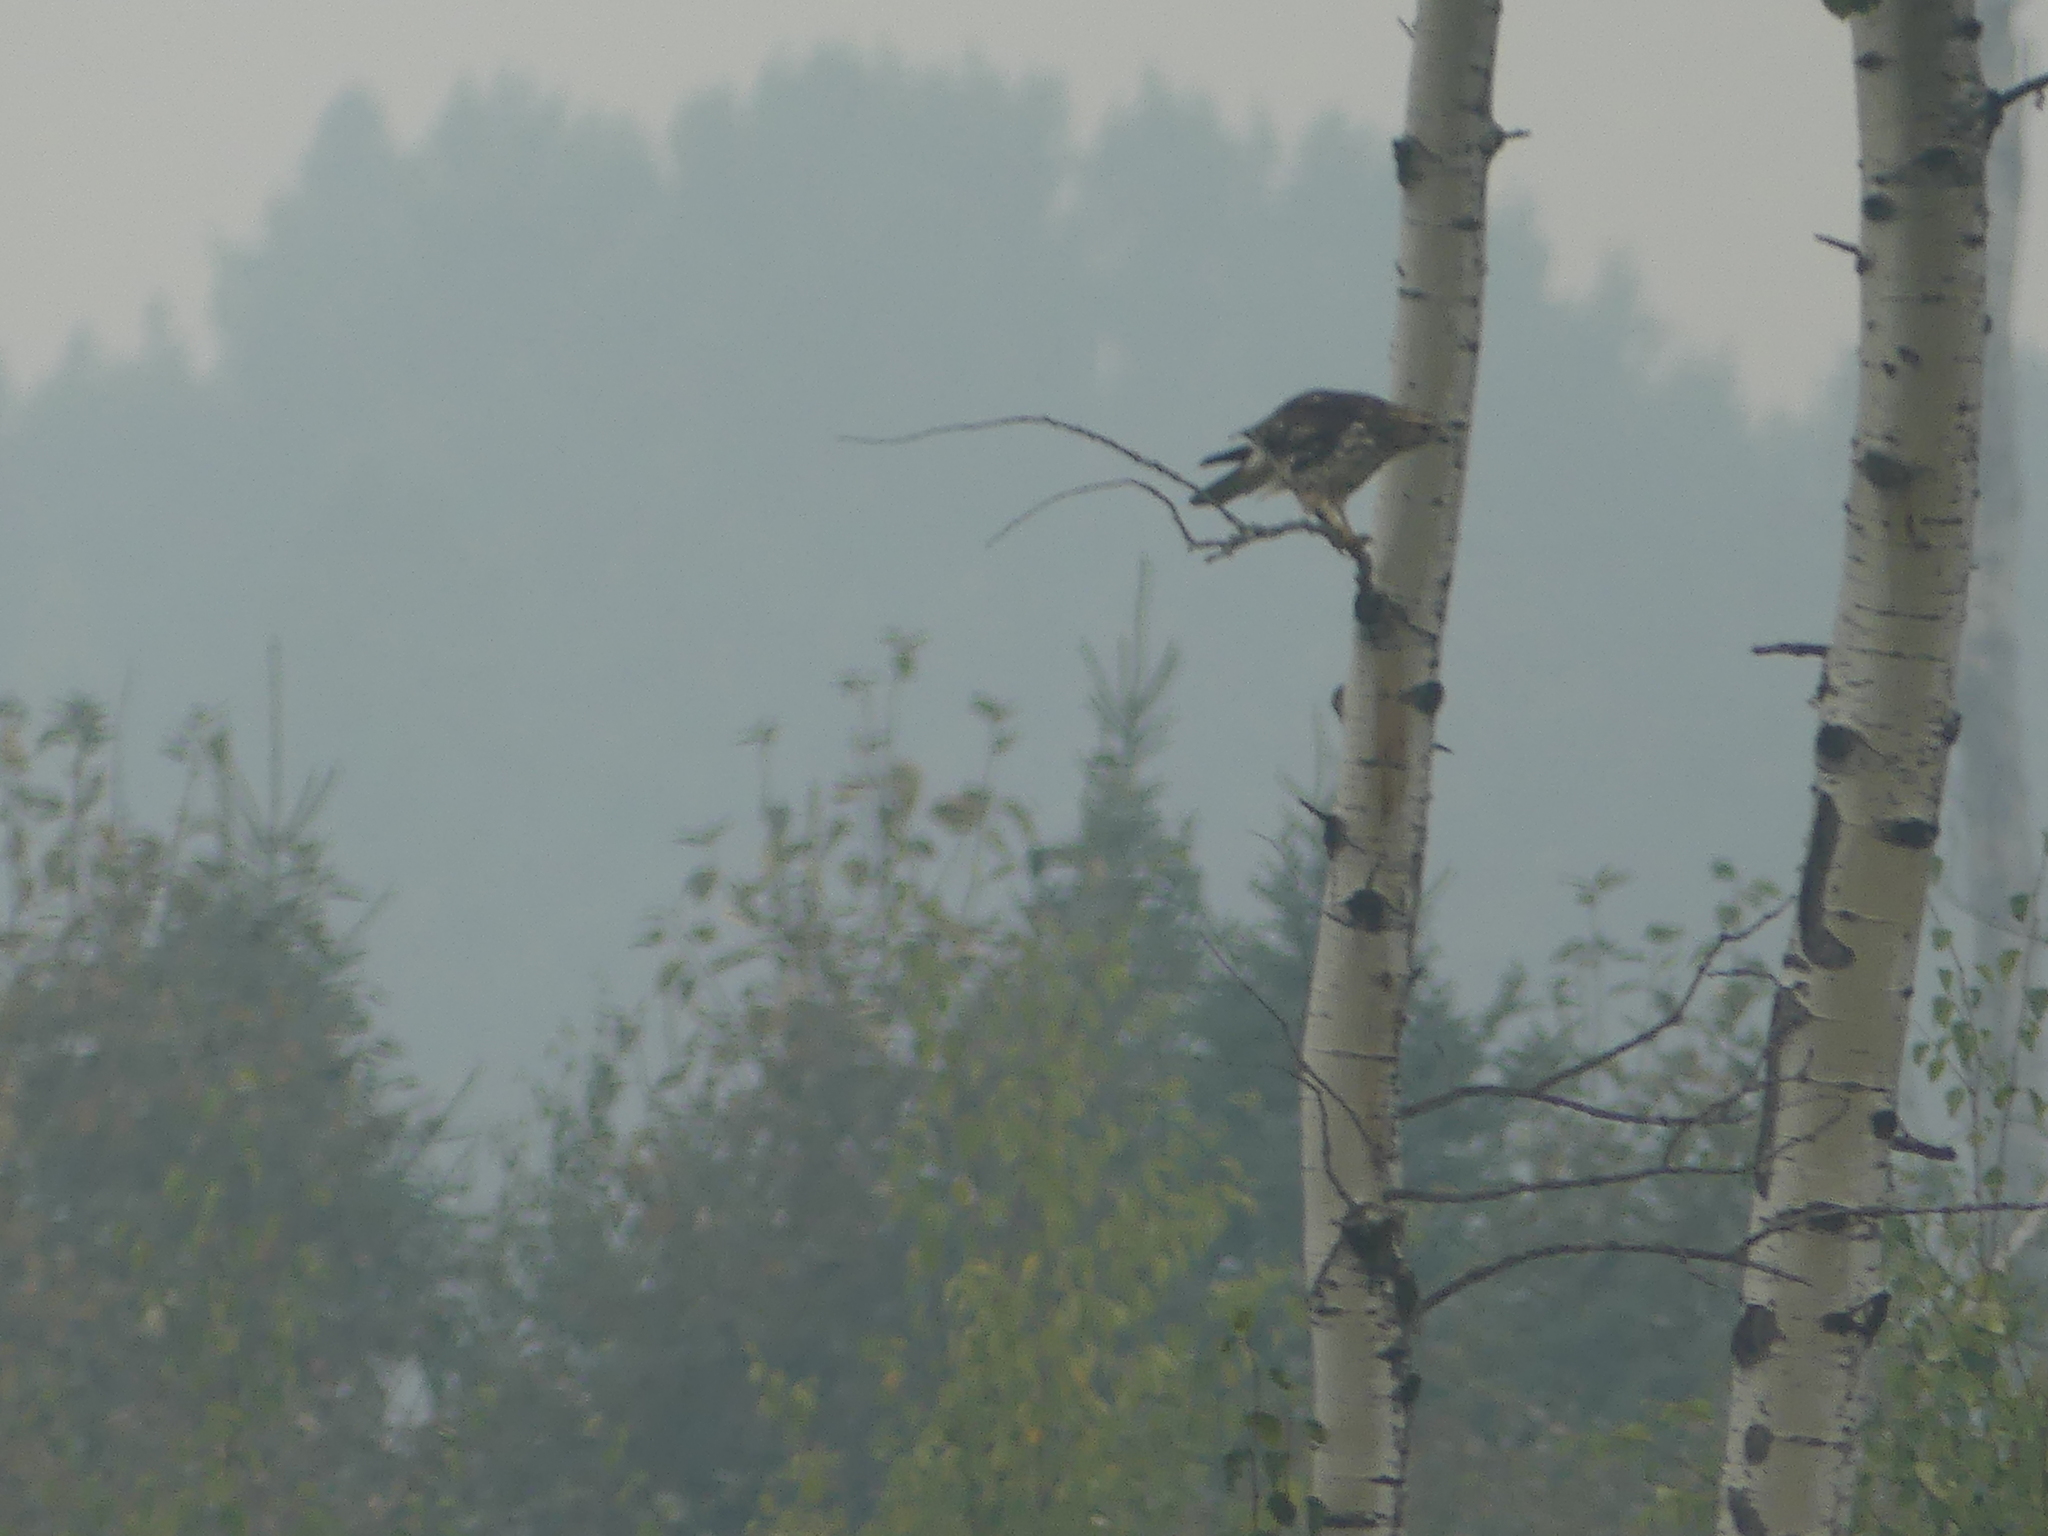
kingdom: Animalia
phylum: Chordata
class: Aves
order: Accipitriformes
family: Accipitridae
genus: Buteo
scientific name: Buteo platypterus
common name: Broad-winged hawk
